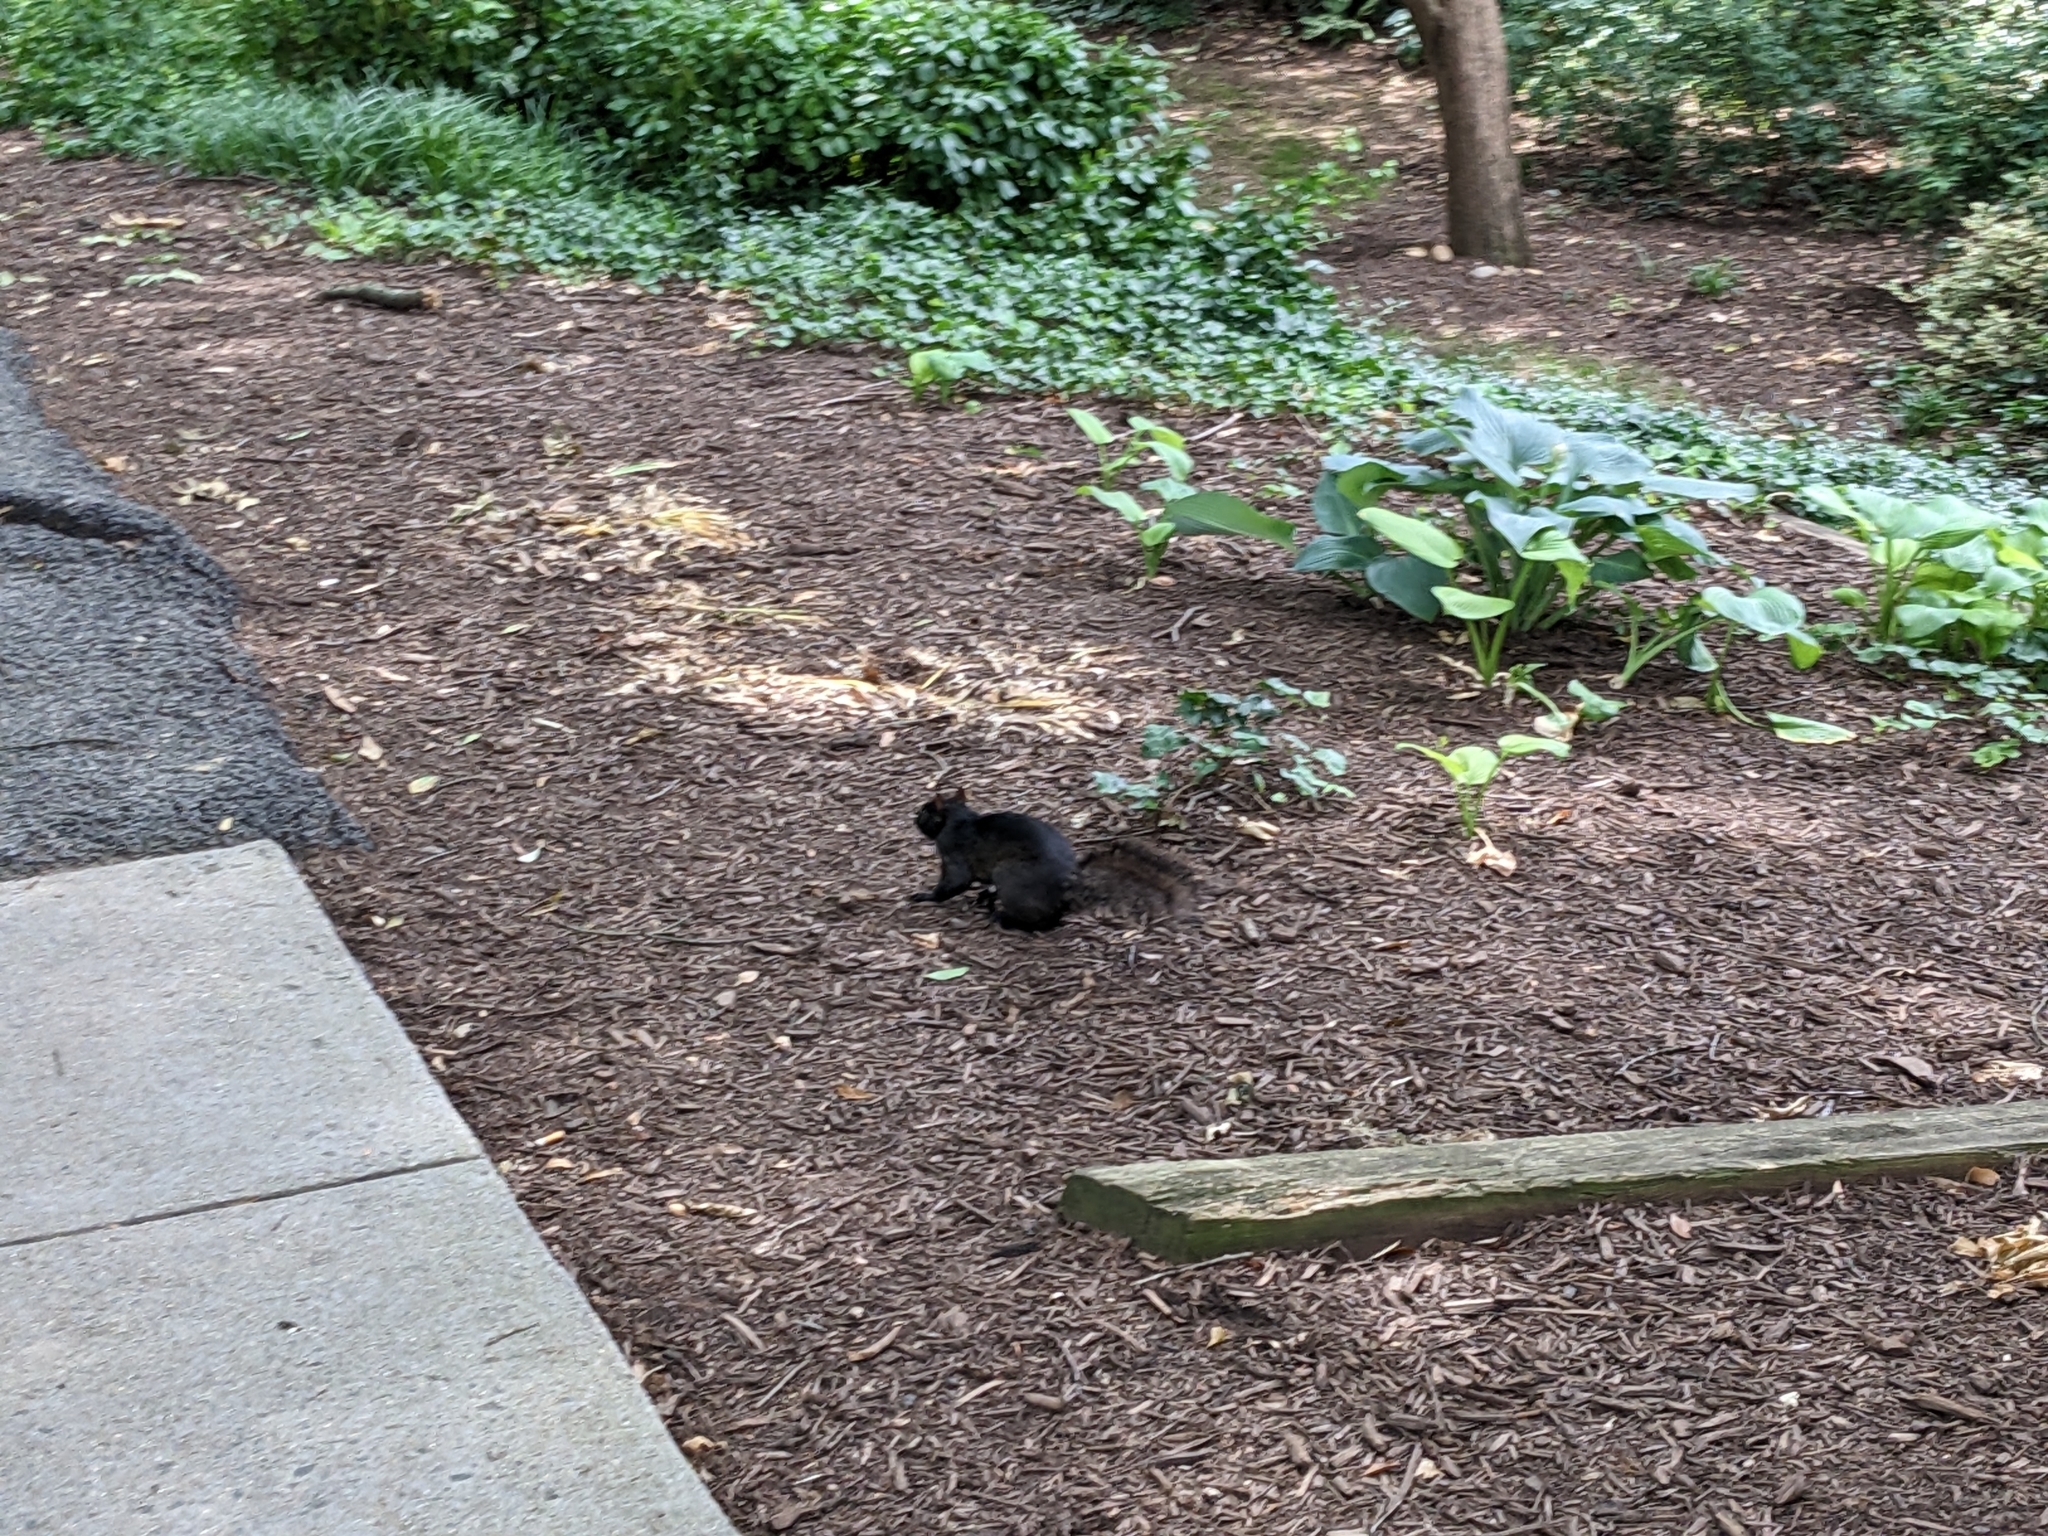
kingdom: Animalia
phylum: Chordata
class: Mammalia
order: Rodentia
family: Sciuridae
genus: Sciurus
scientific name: Sciurus carolinensis
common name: Eastern gray squirrel
